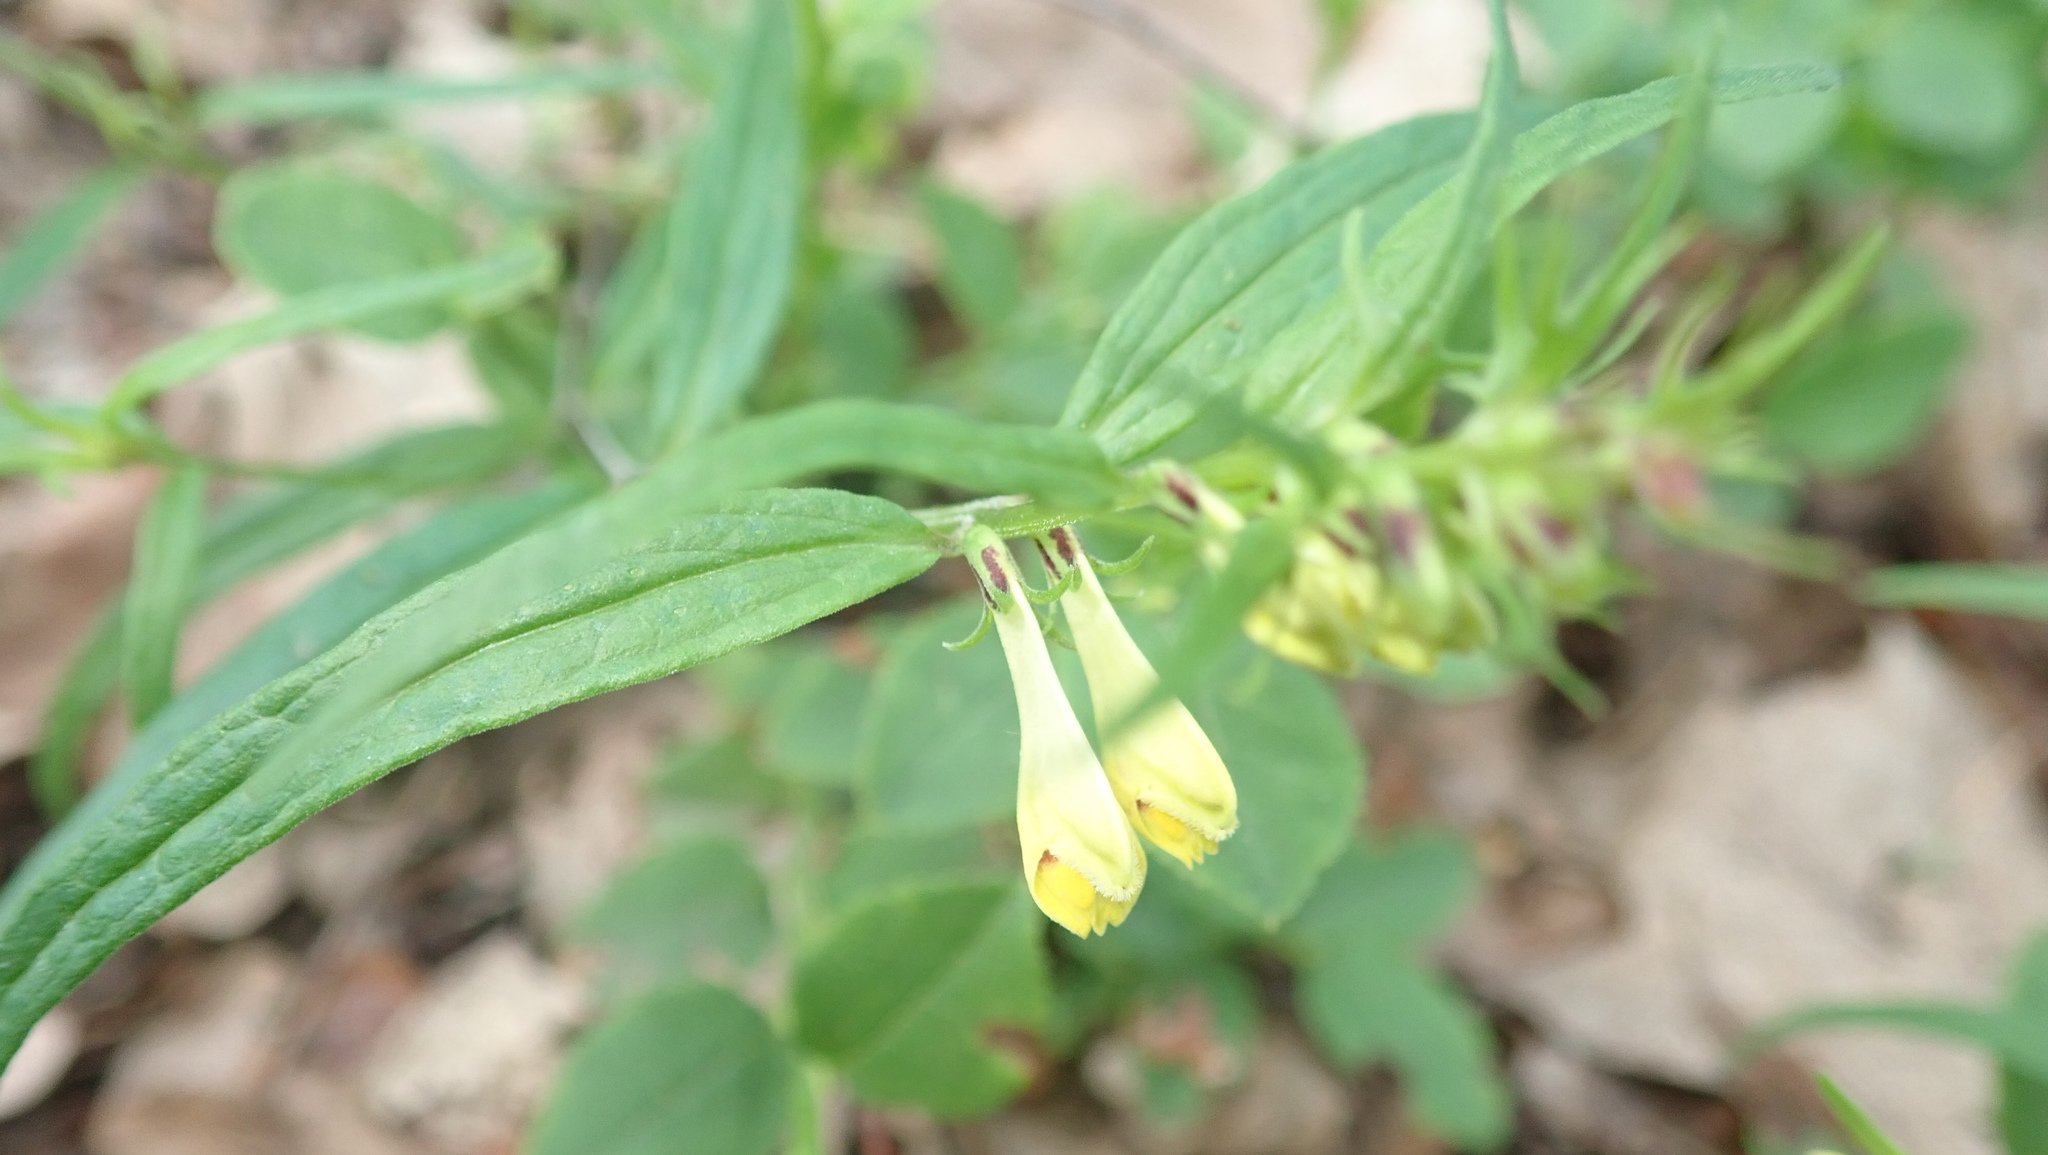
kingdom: Plantae
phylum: Tracheophyta
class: Magnoliopsida
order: Lamiales
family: Orobanchaceae
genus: Melampyrum
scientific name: Melampyrum pratense
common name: Common cow-wheat
